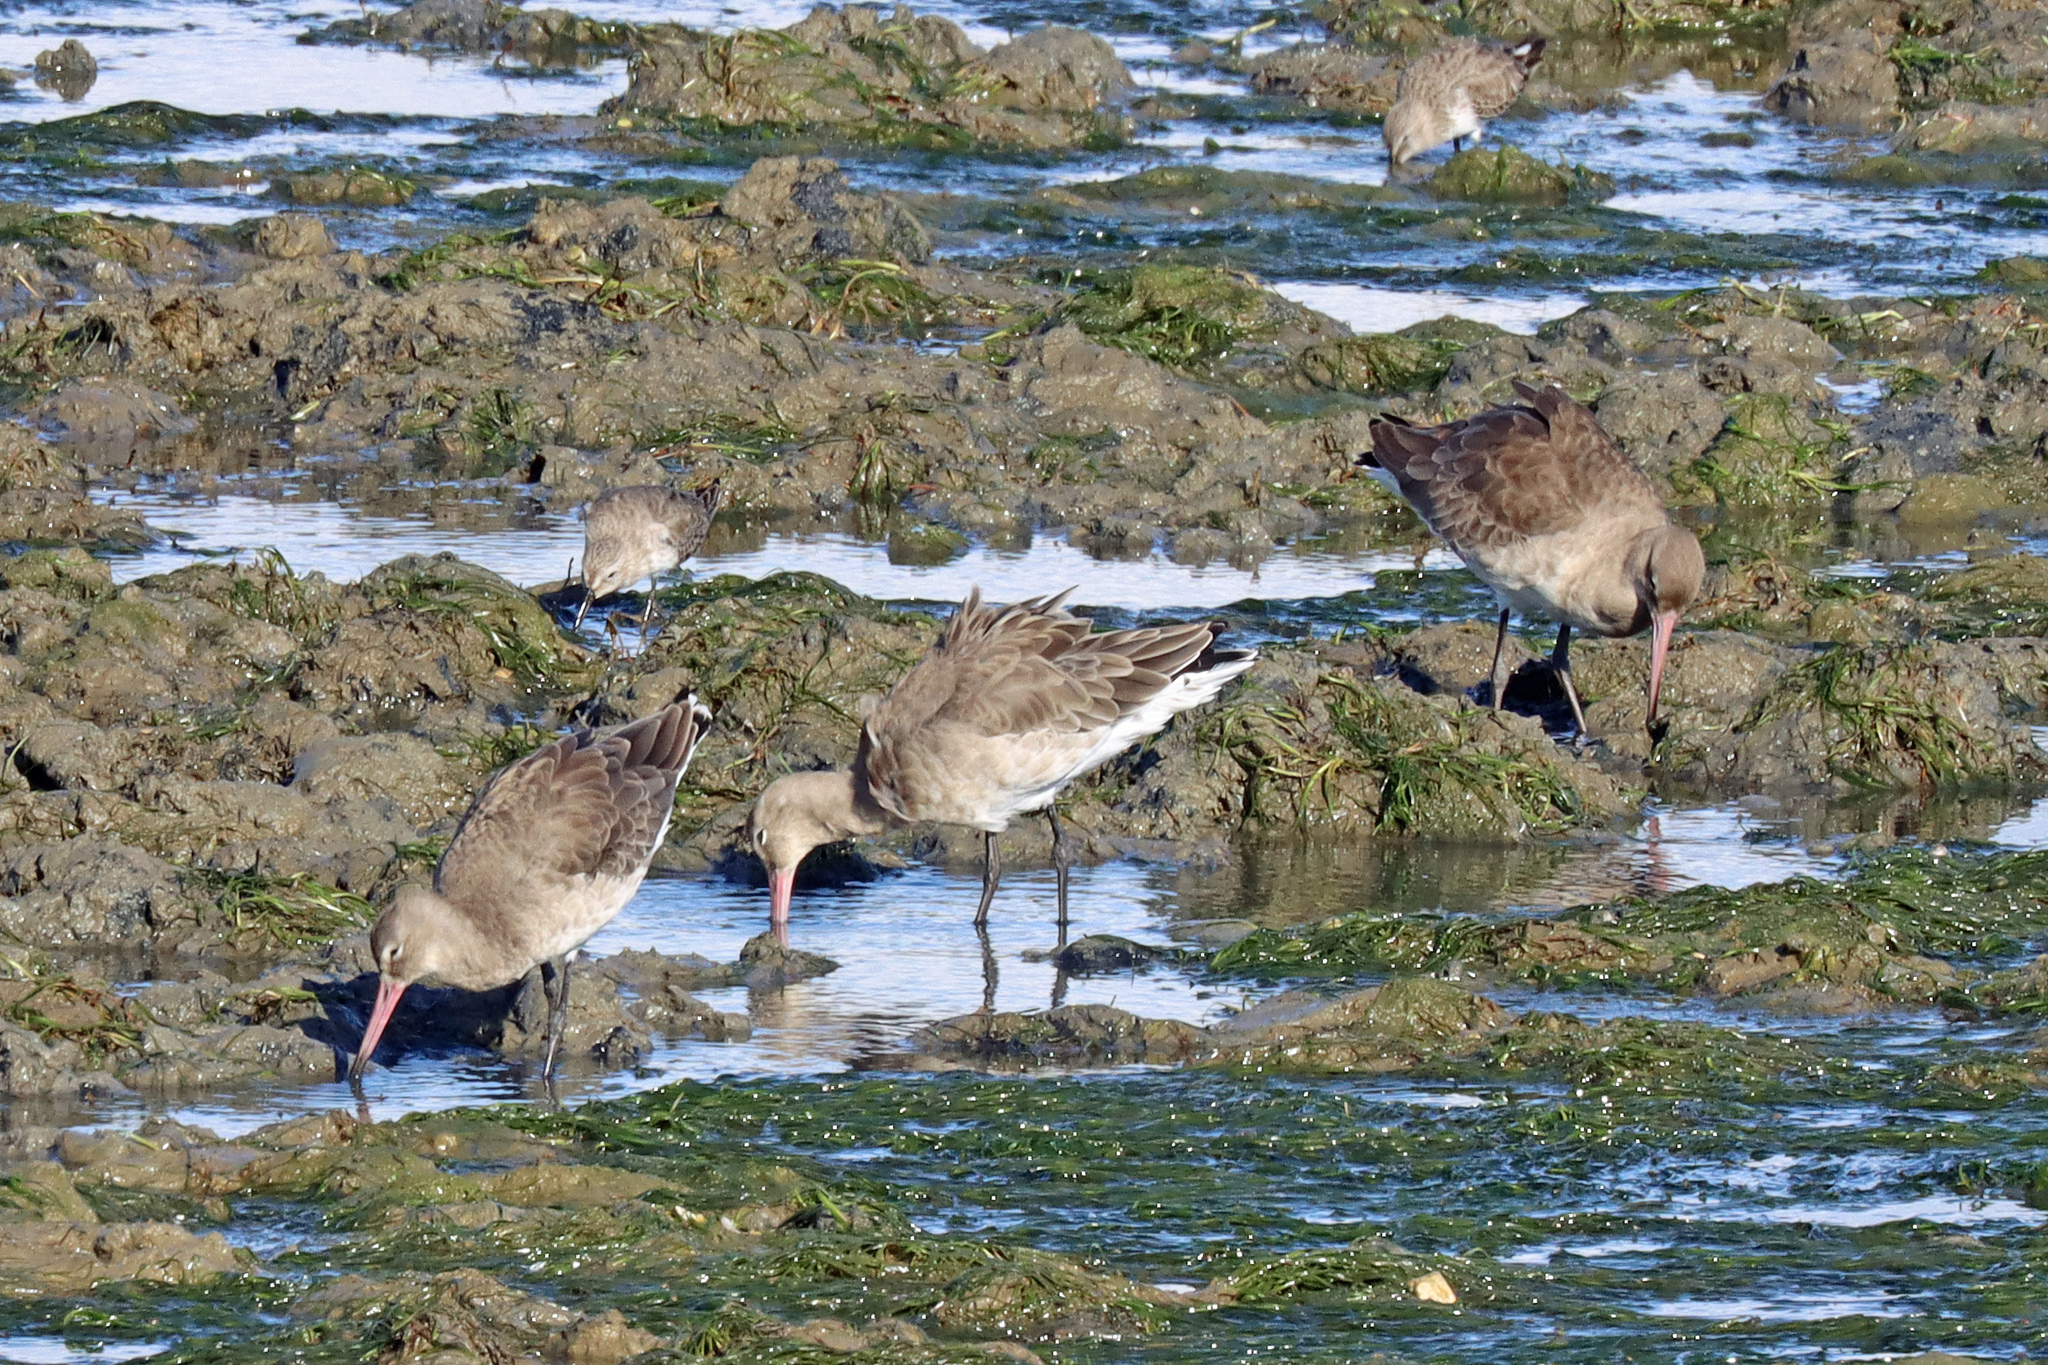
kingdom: Animalia
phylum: Chordata
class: Aves
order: Charadriiformes
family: Scolopacidae
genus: Limosa
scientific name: Limosa limosa
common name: Black-tailed godwit
